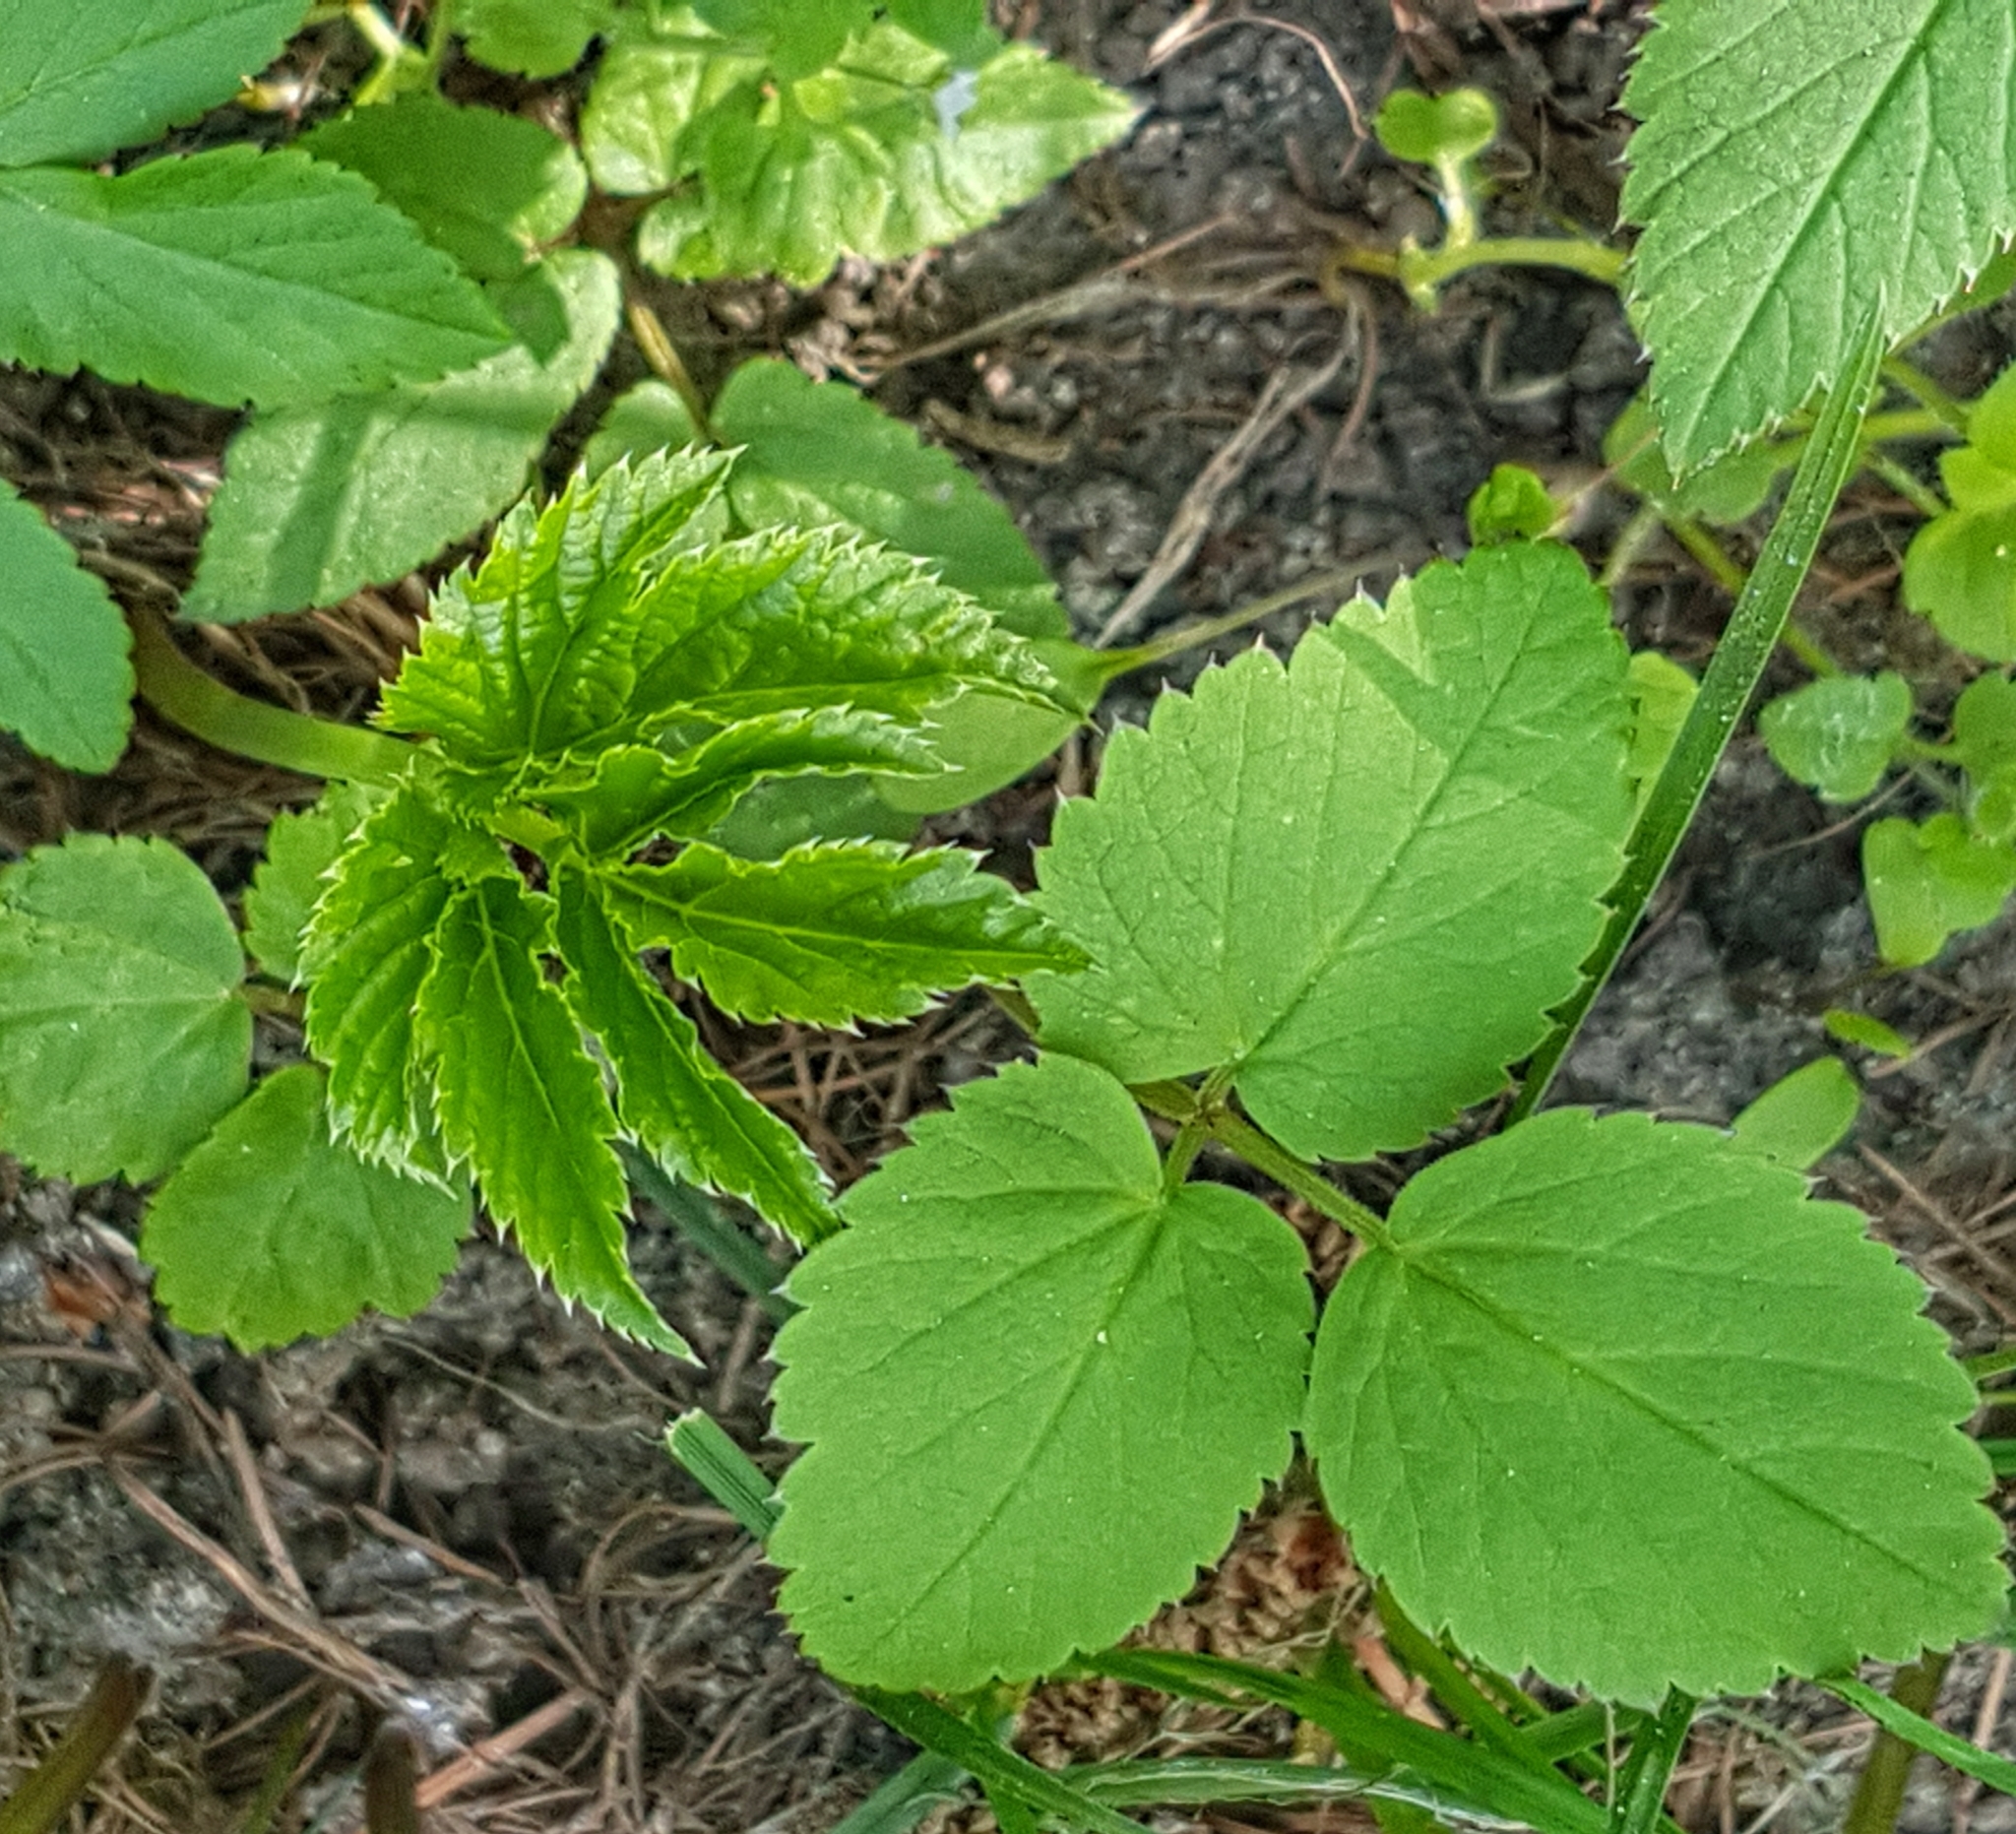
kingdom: Plantae
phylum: Tracheophyta
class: Magnoliopsida
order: Apiales
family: Apiaceae
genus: Aegopodium
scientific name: Aegopodium podagraria
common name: Ground-elder
